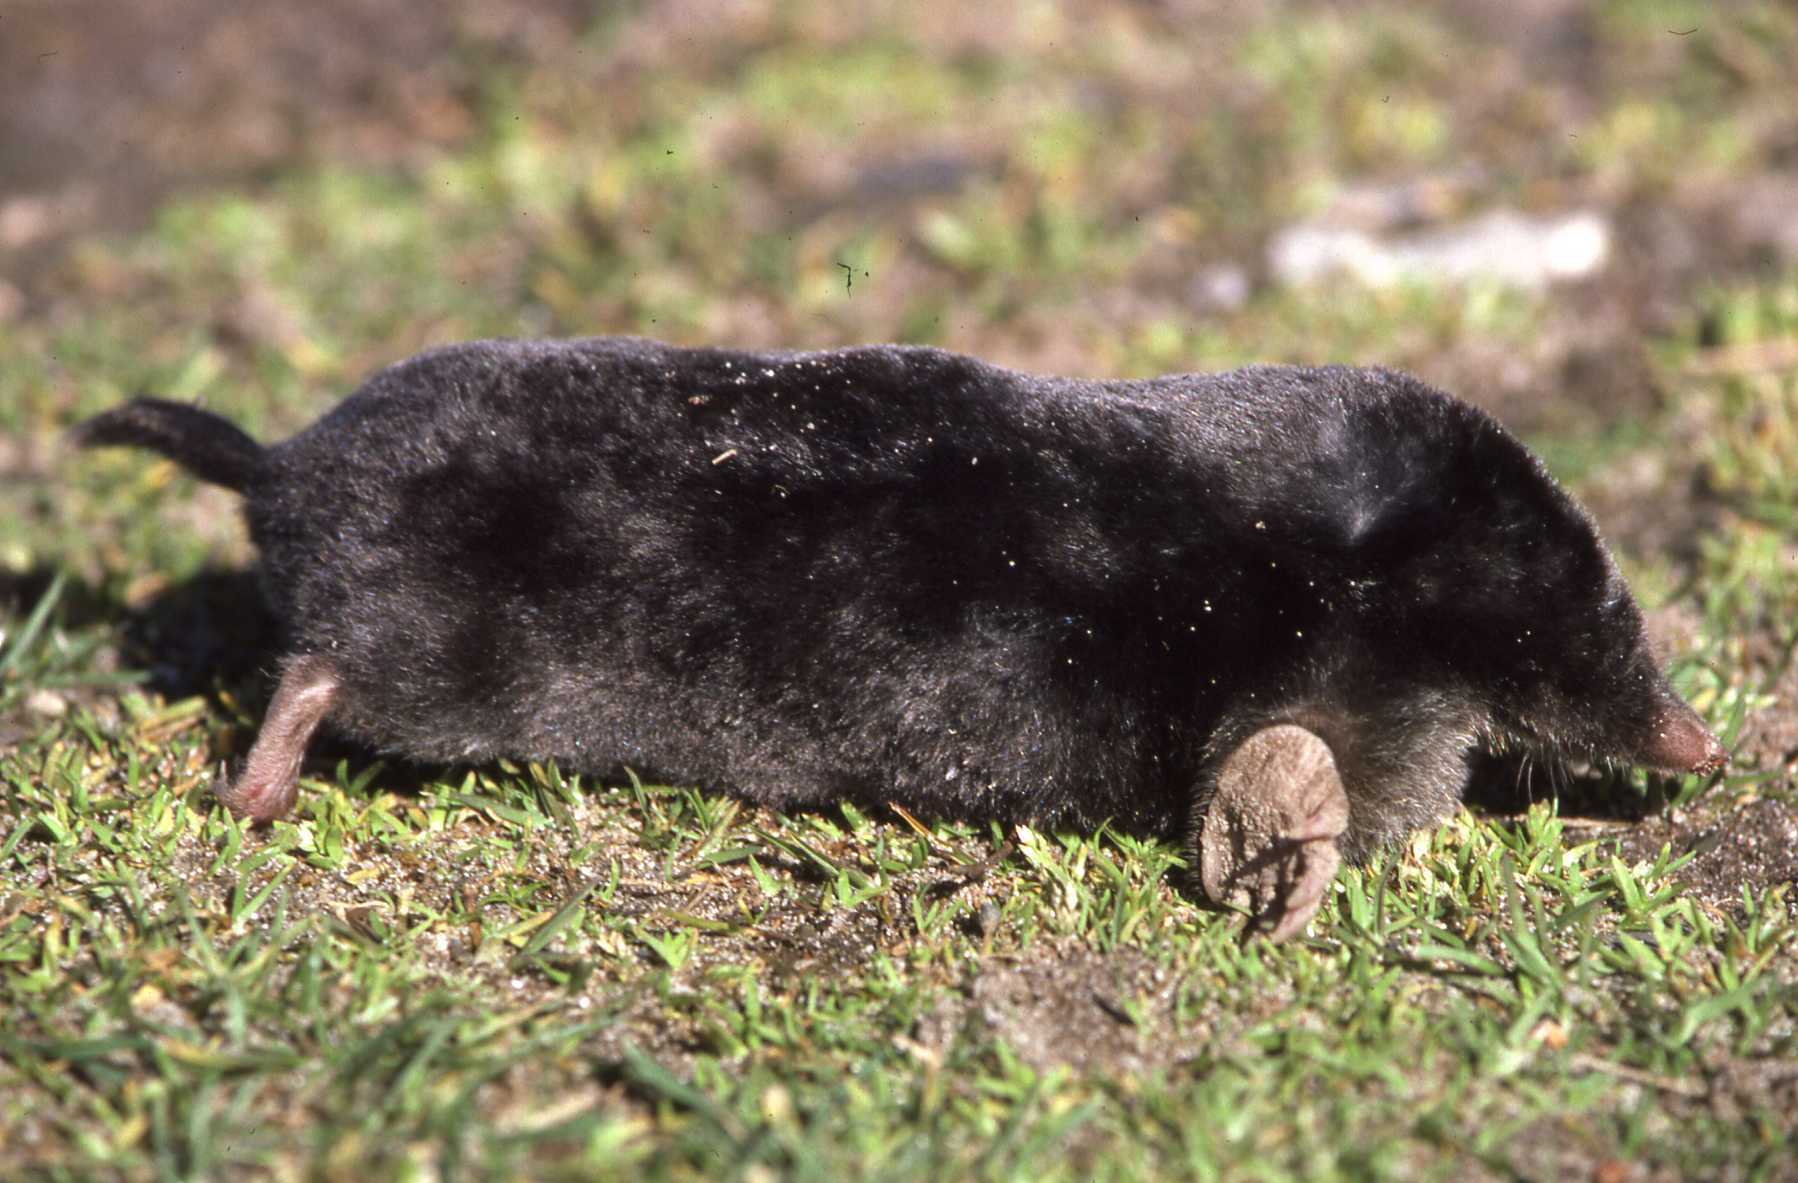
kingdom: Animalia
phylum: Chordata
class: Mammalia
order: Soricomorpha
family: Talpidae
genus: Talpa
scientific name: Talpa europaea
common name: European mole
